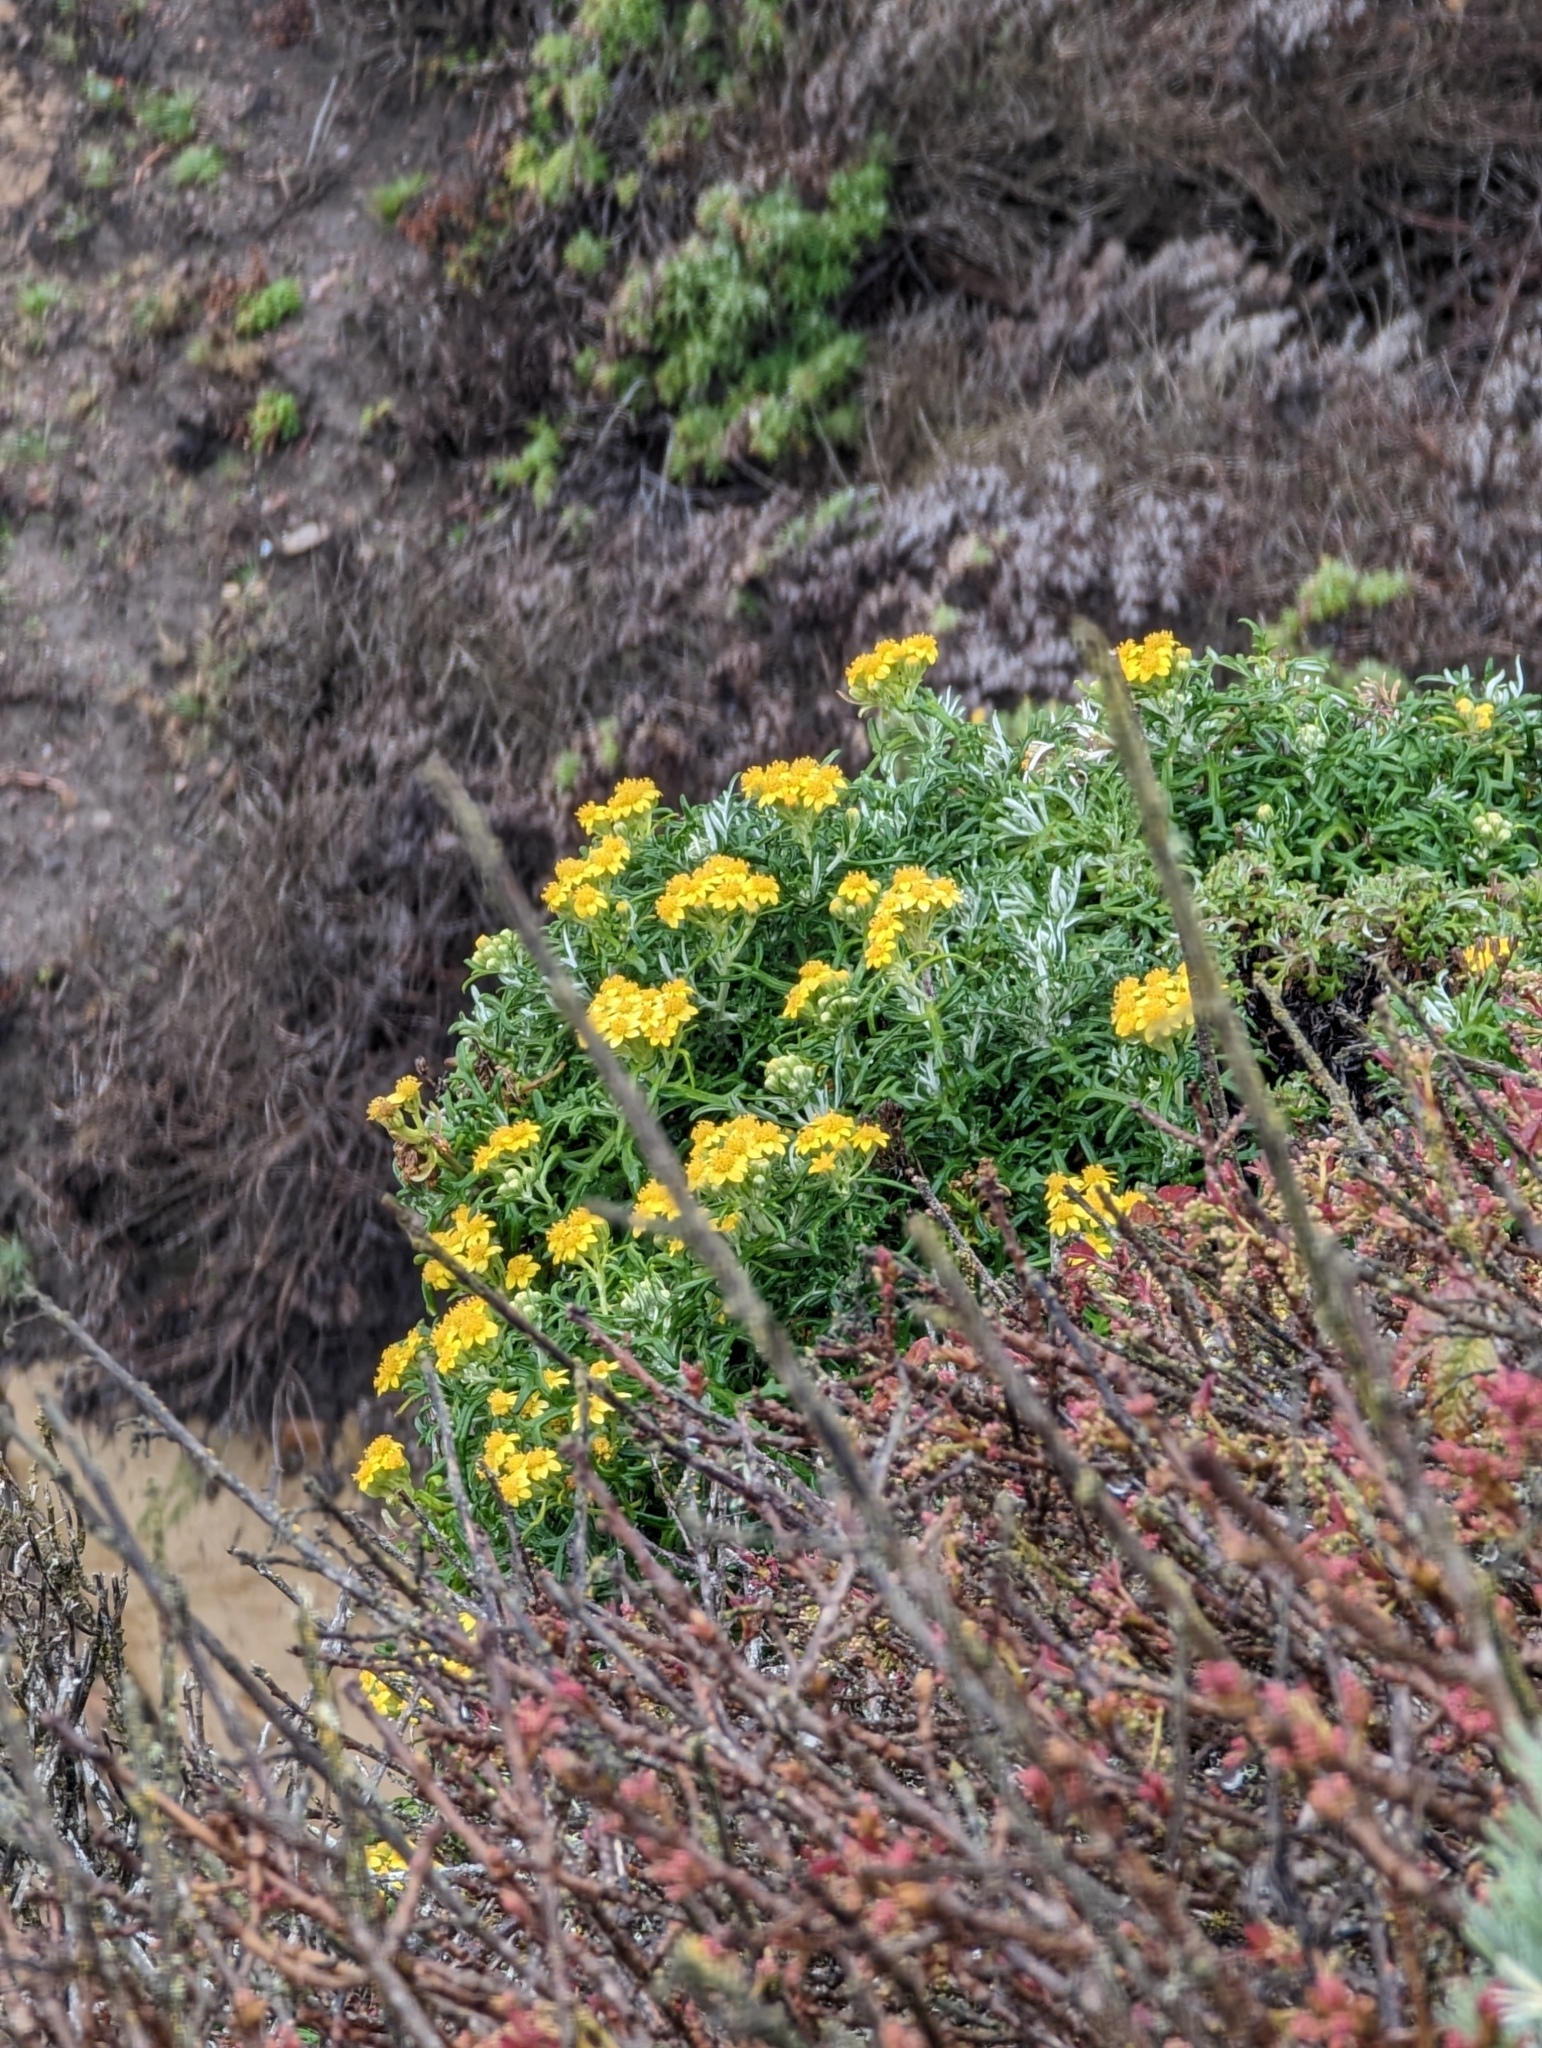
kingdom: Plantae
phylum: Tracheophyta
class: Magnoliopsida
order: Asterales
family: Asteraceae
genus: Eriophyllum
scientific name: Eriophyllum staechadifolium
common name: Lizardtail
